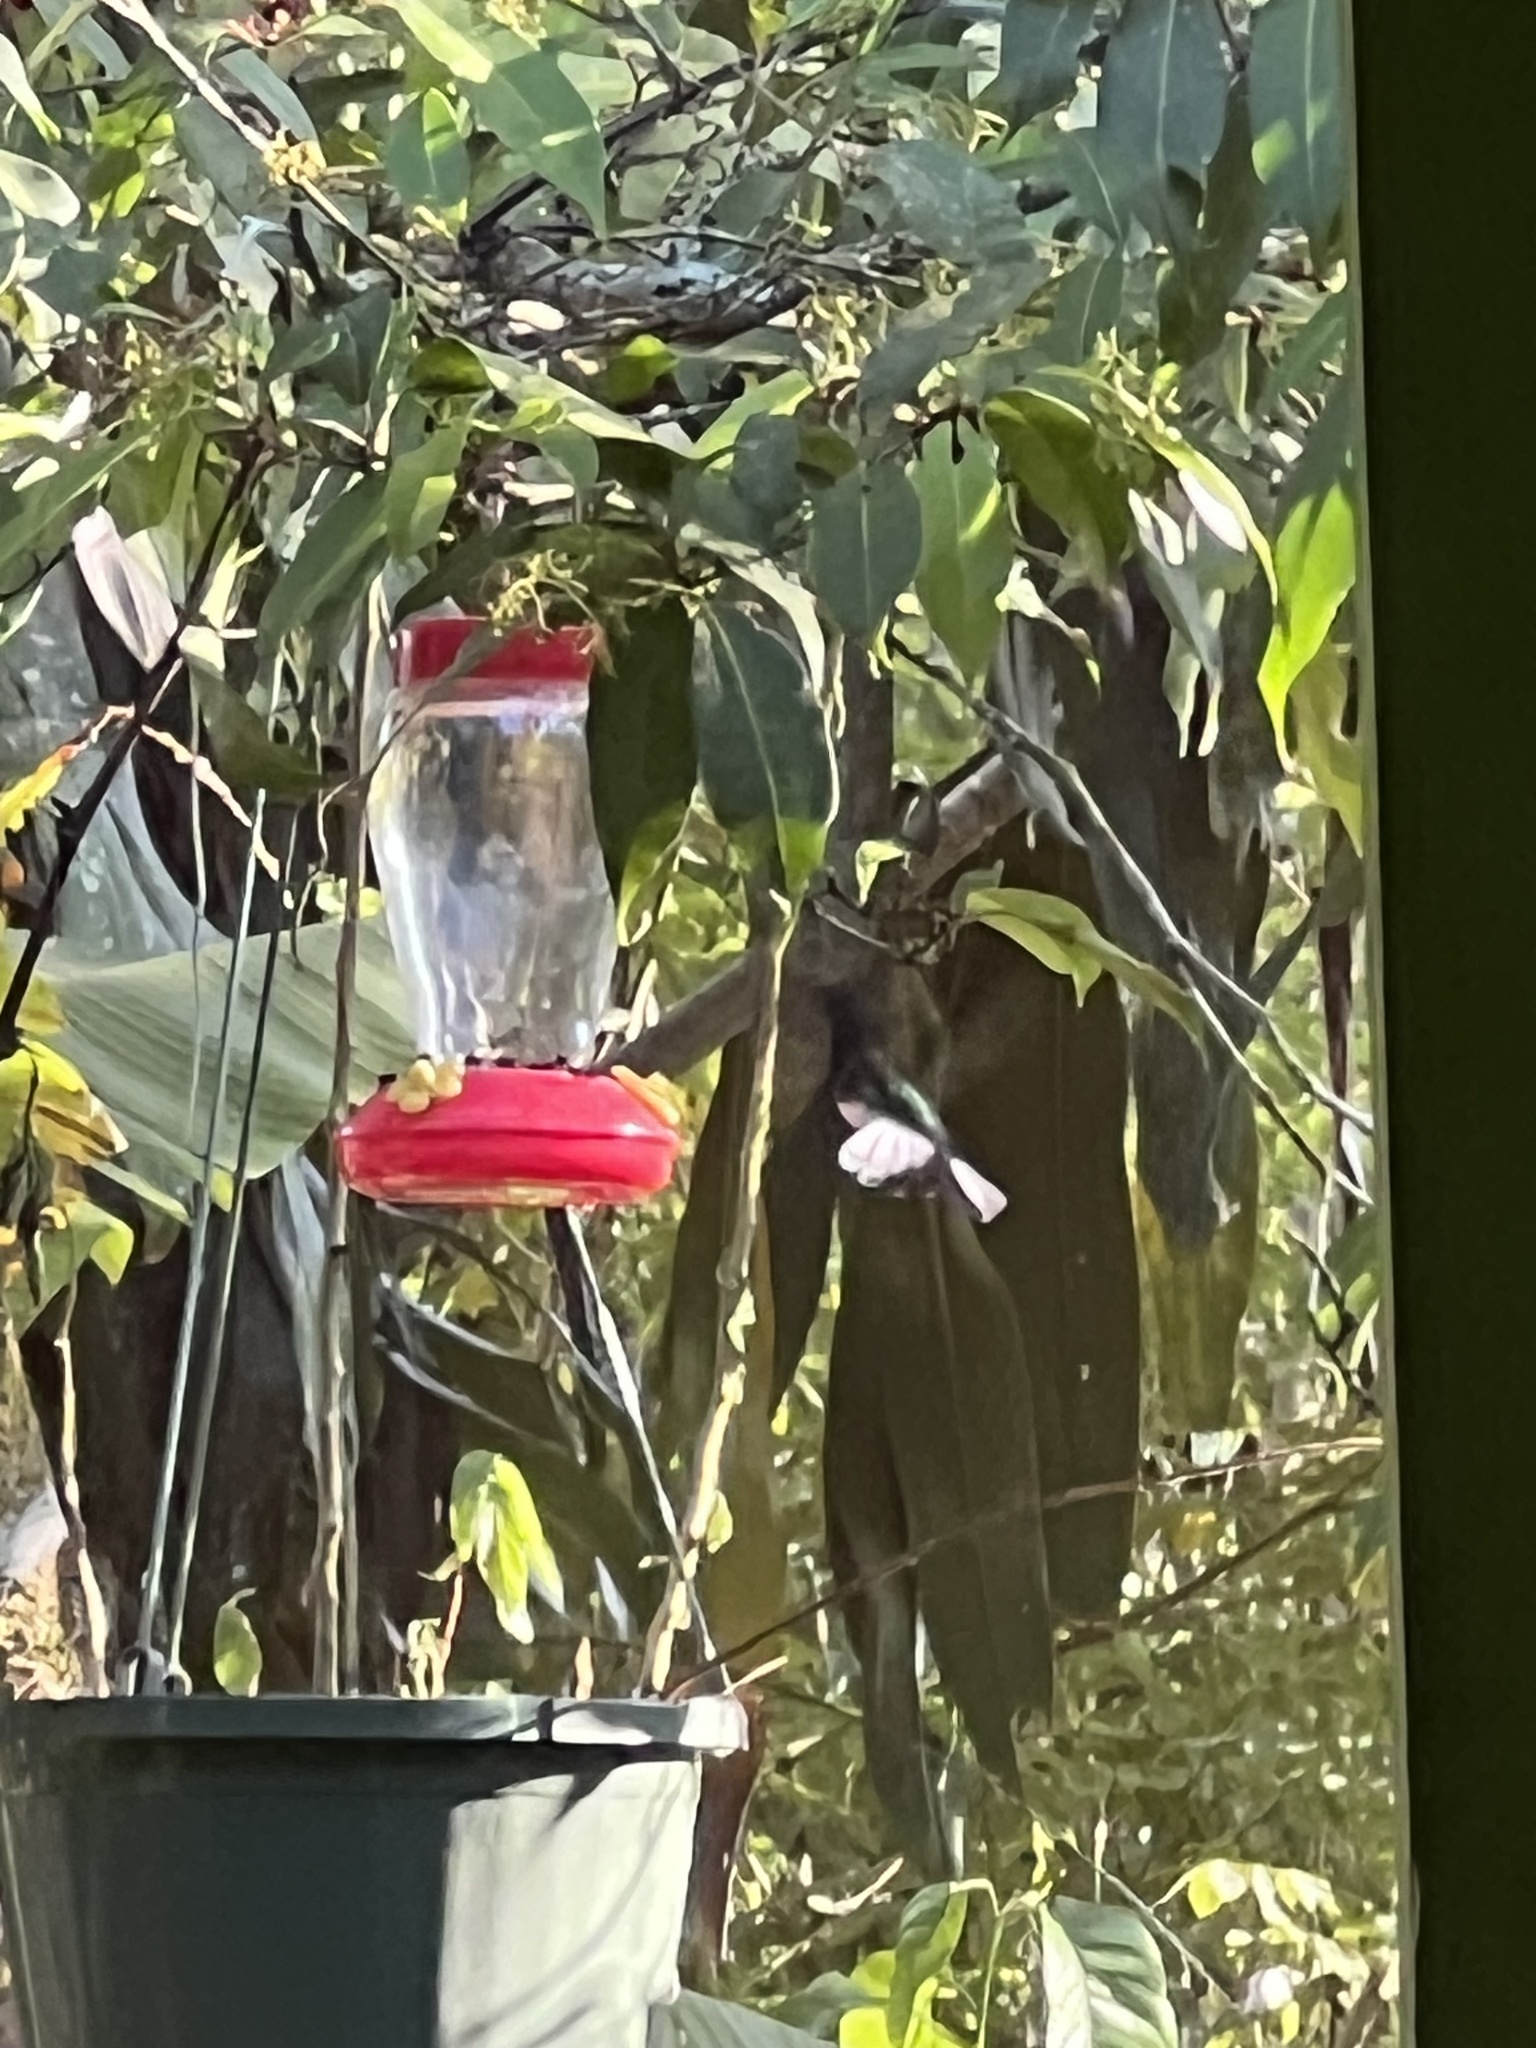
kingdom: Animalia
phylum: Chordata
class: Aves
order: Apodiformes
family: Trochilidae
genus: Florisuga
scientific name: Florisuga mellivora
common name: White-necked jacobin
